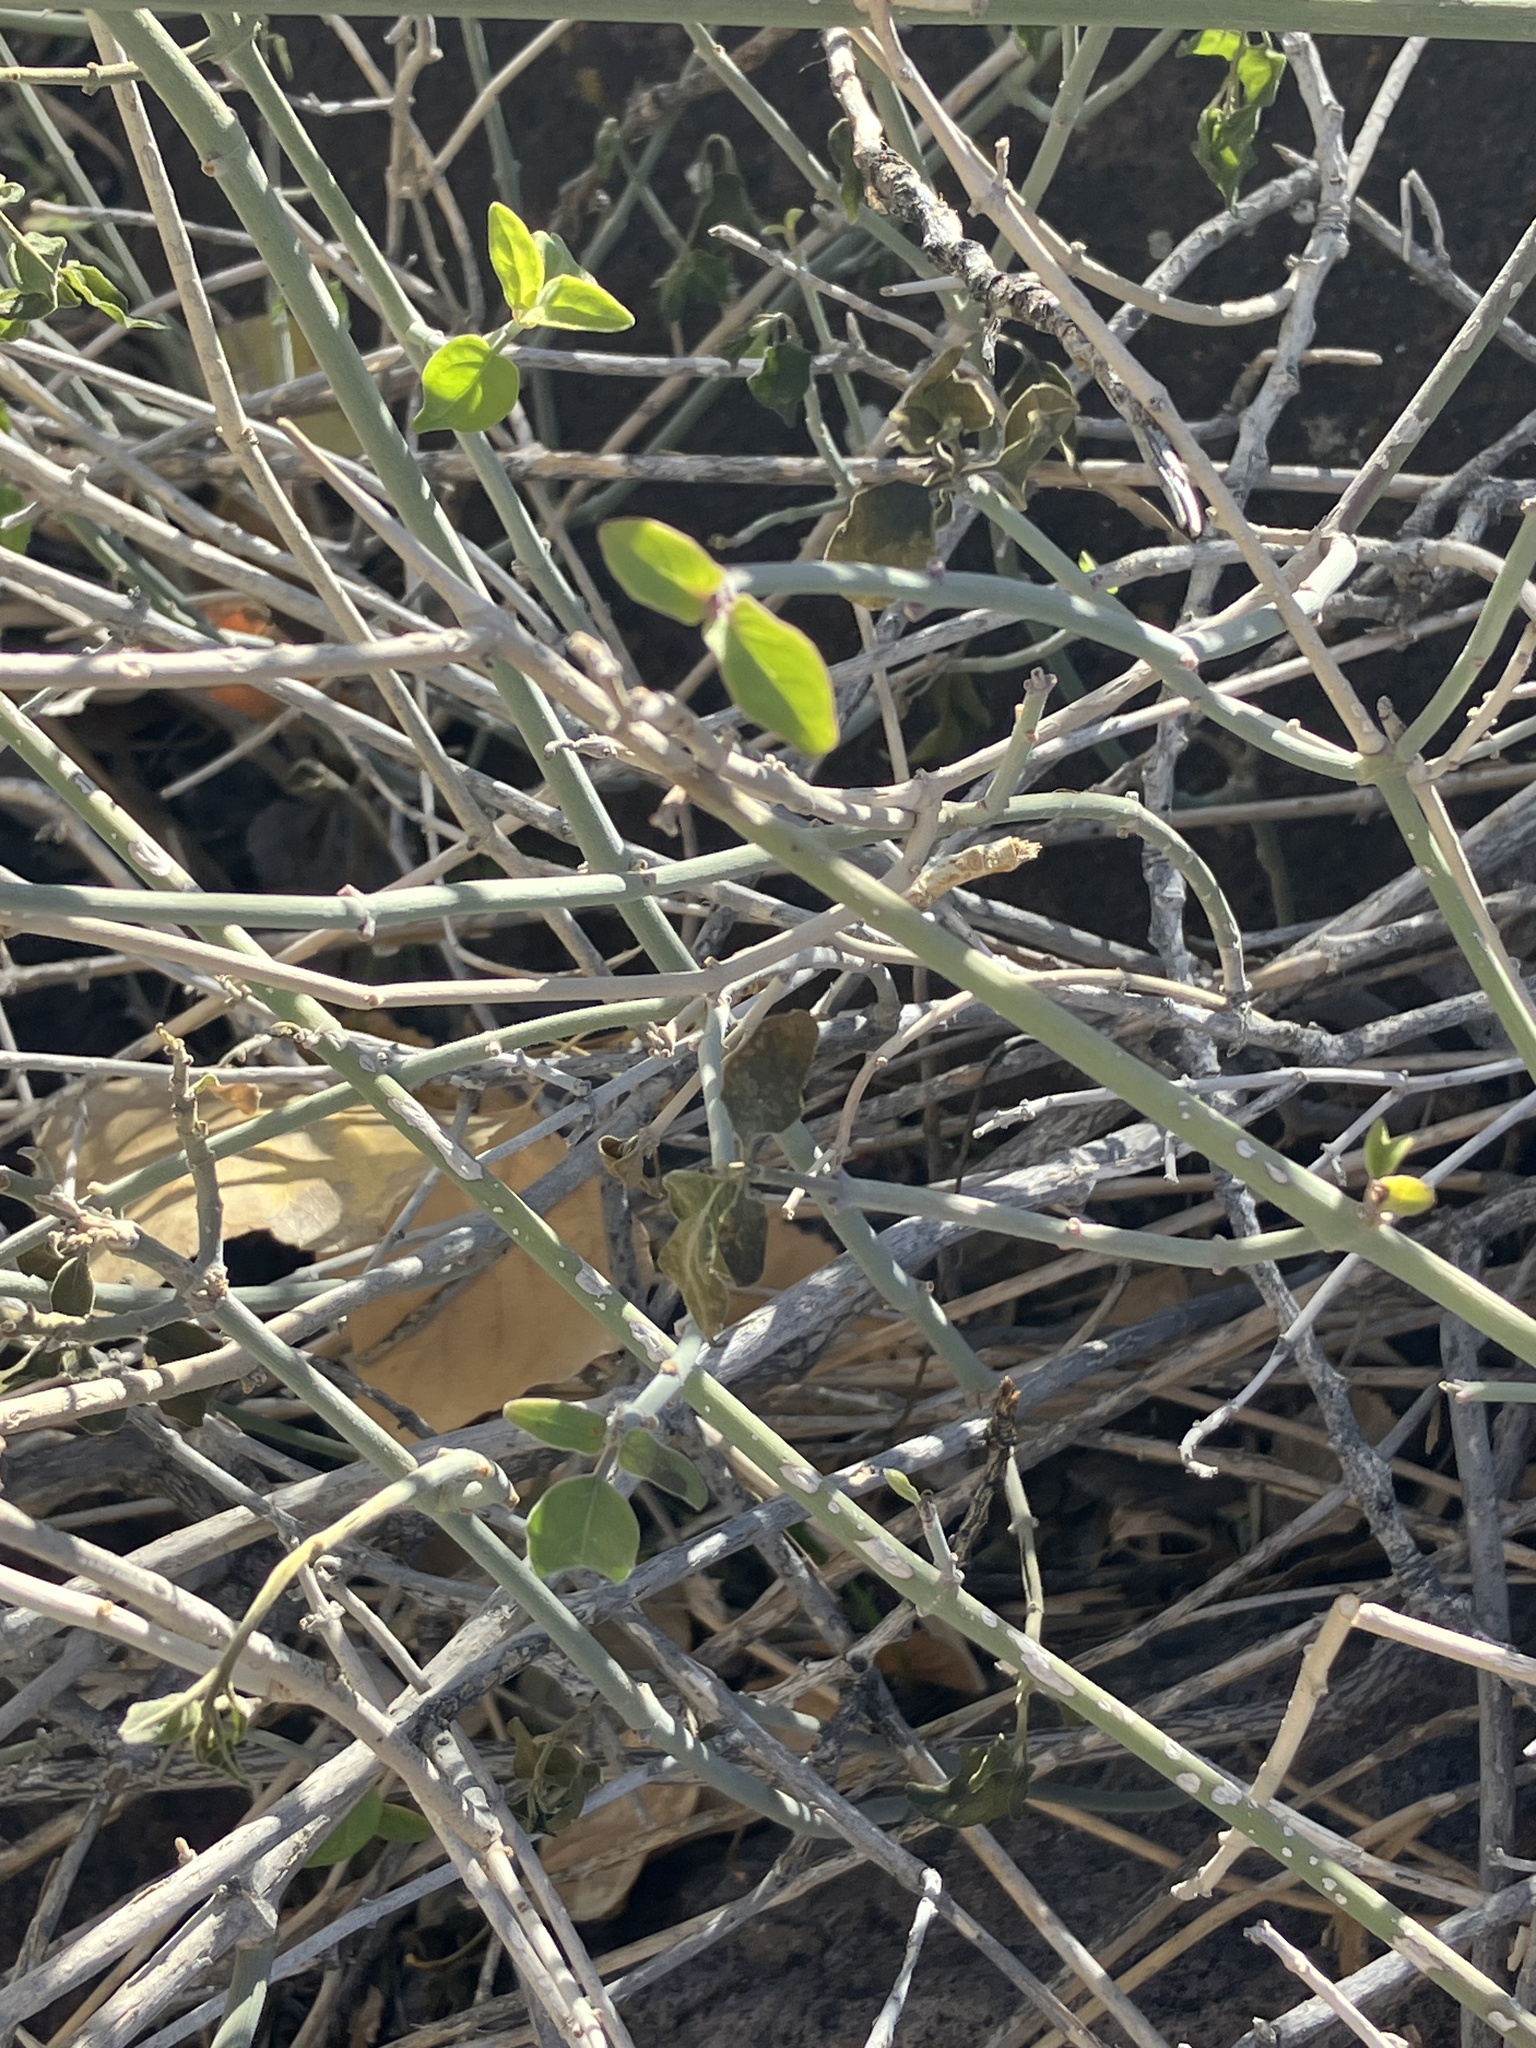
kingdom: Plantae
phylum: Tracheophyta
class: Magnoliopsida
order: Lamiales
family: Acanthaceae
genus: Justicia
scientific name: Justicia californica
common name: Chuparosa-honeysuckle
